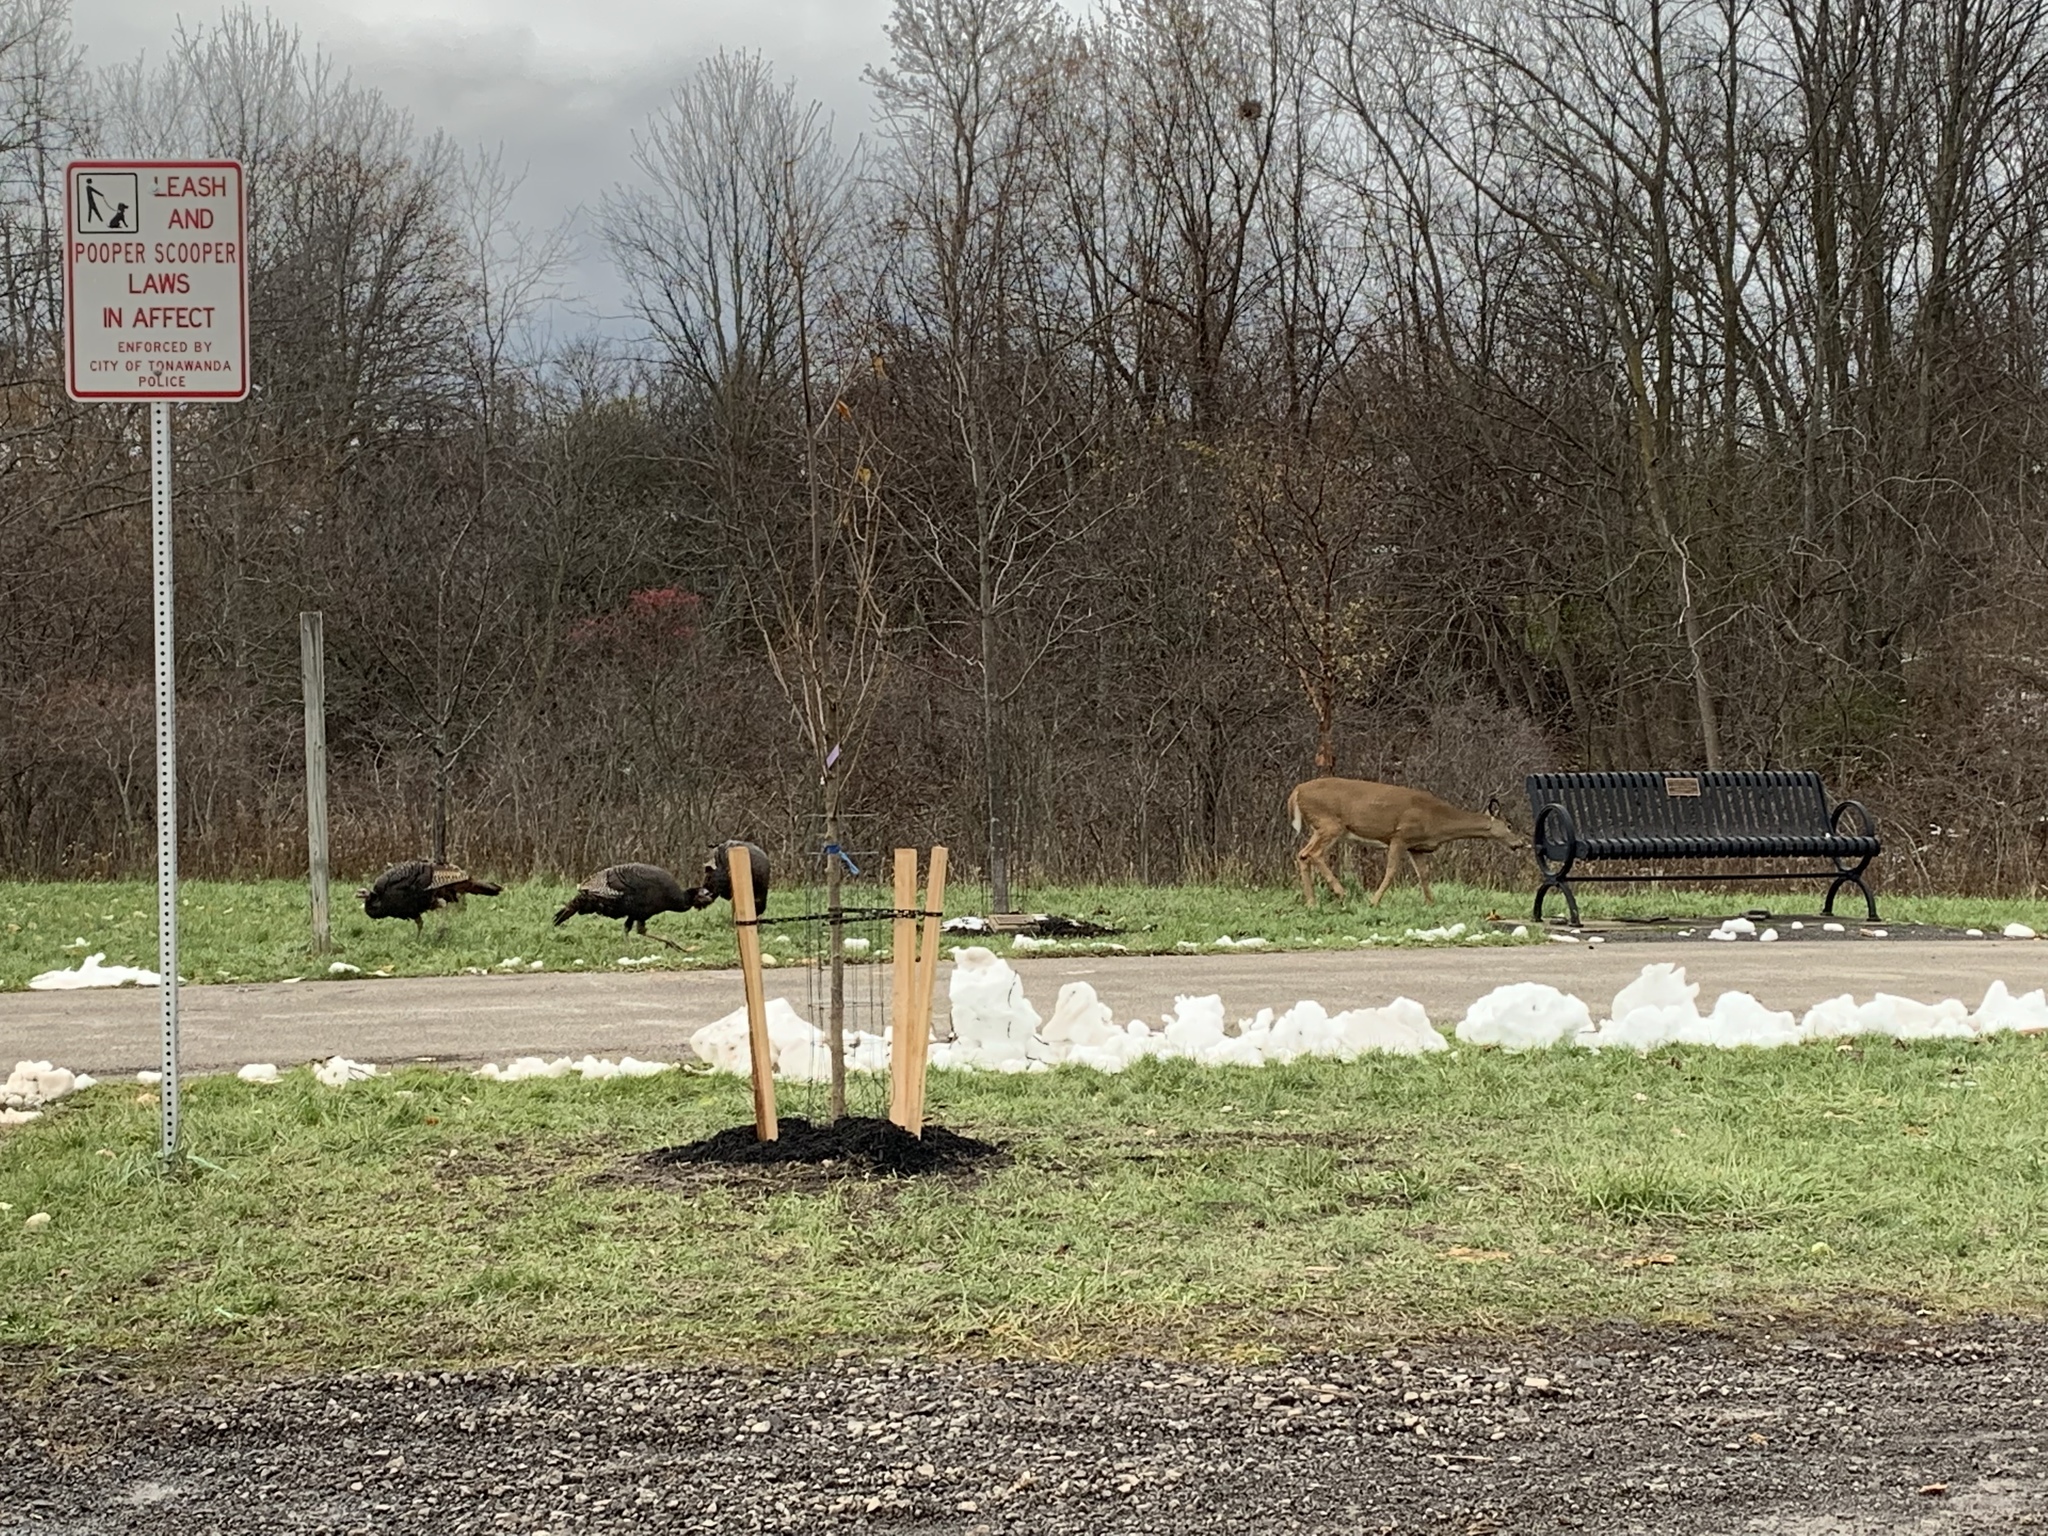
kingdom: Animalia
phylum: Chordata
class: Aves
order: Galliformes
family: Phasianidae
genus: Meleagris
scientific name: Meleagris gallopavo
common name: Wild turkey
